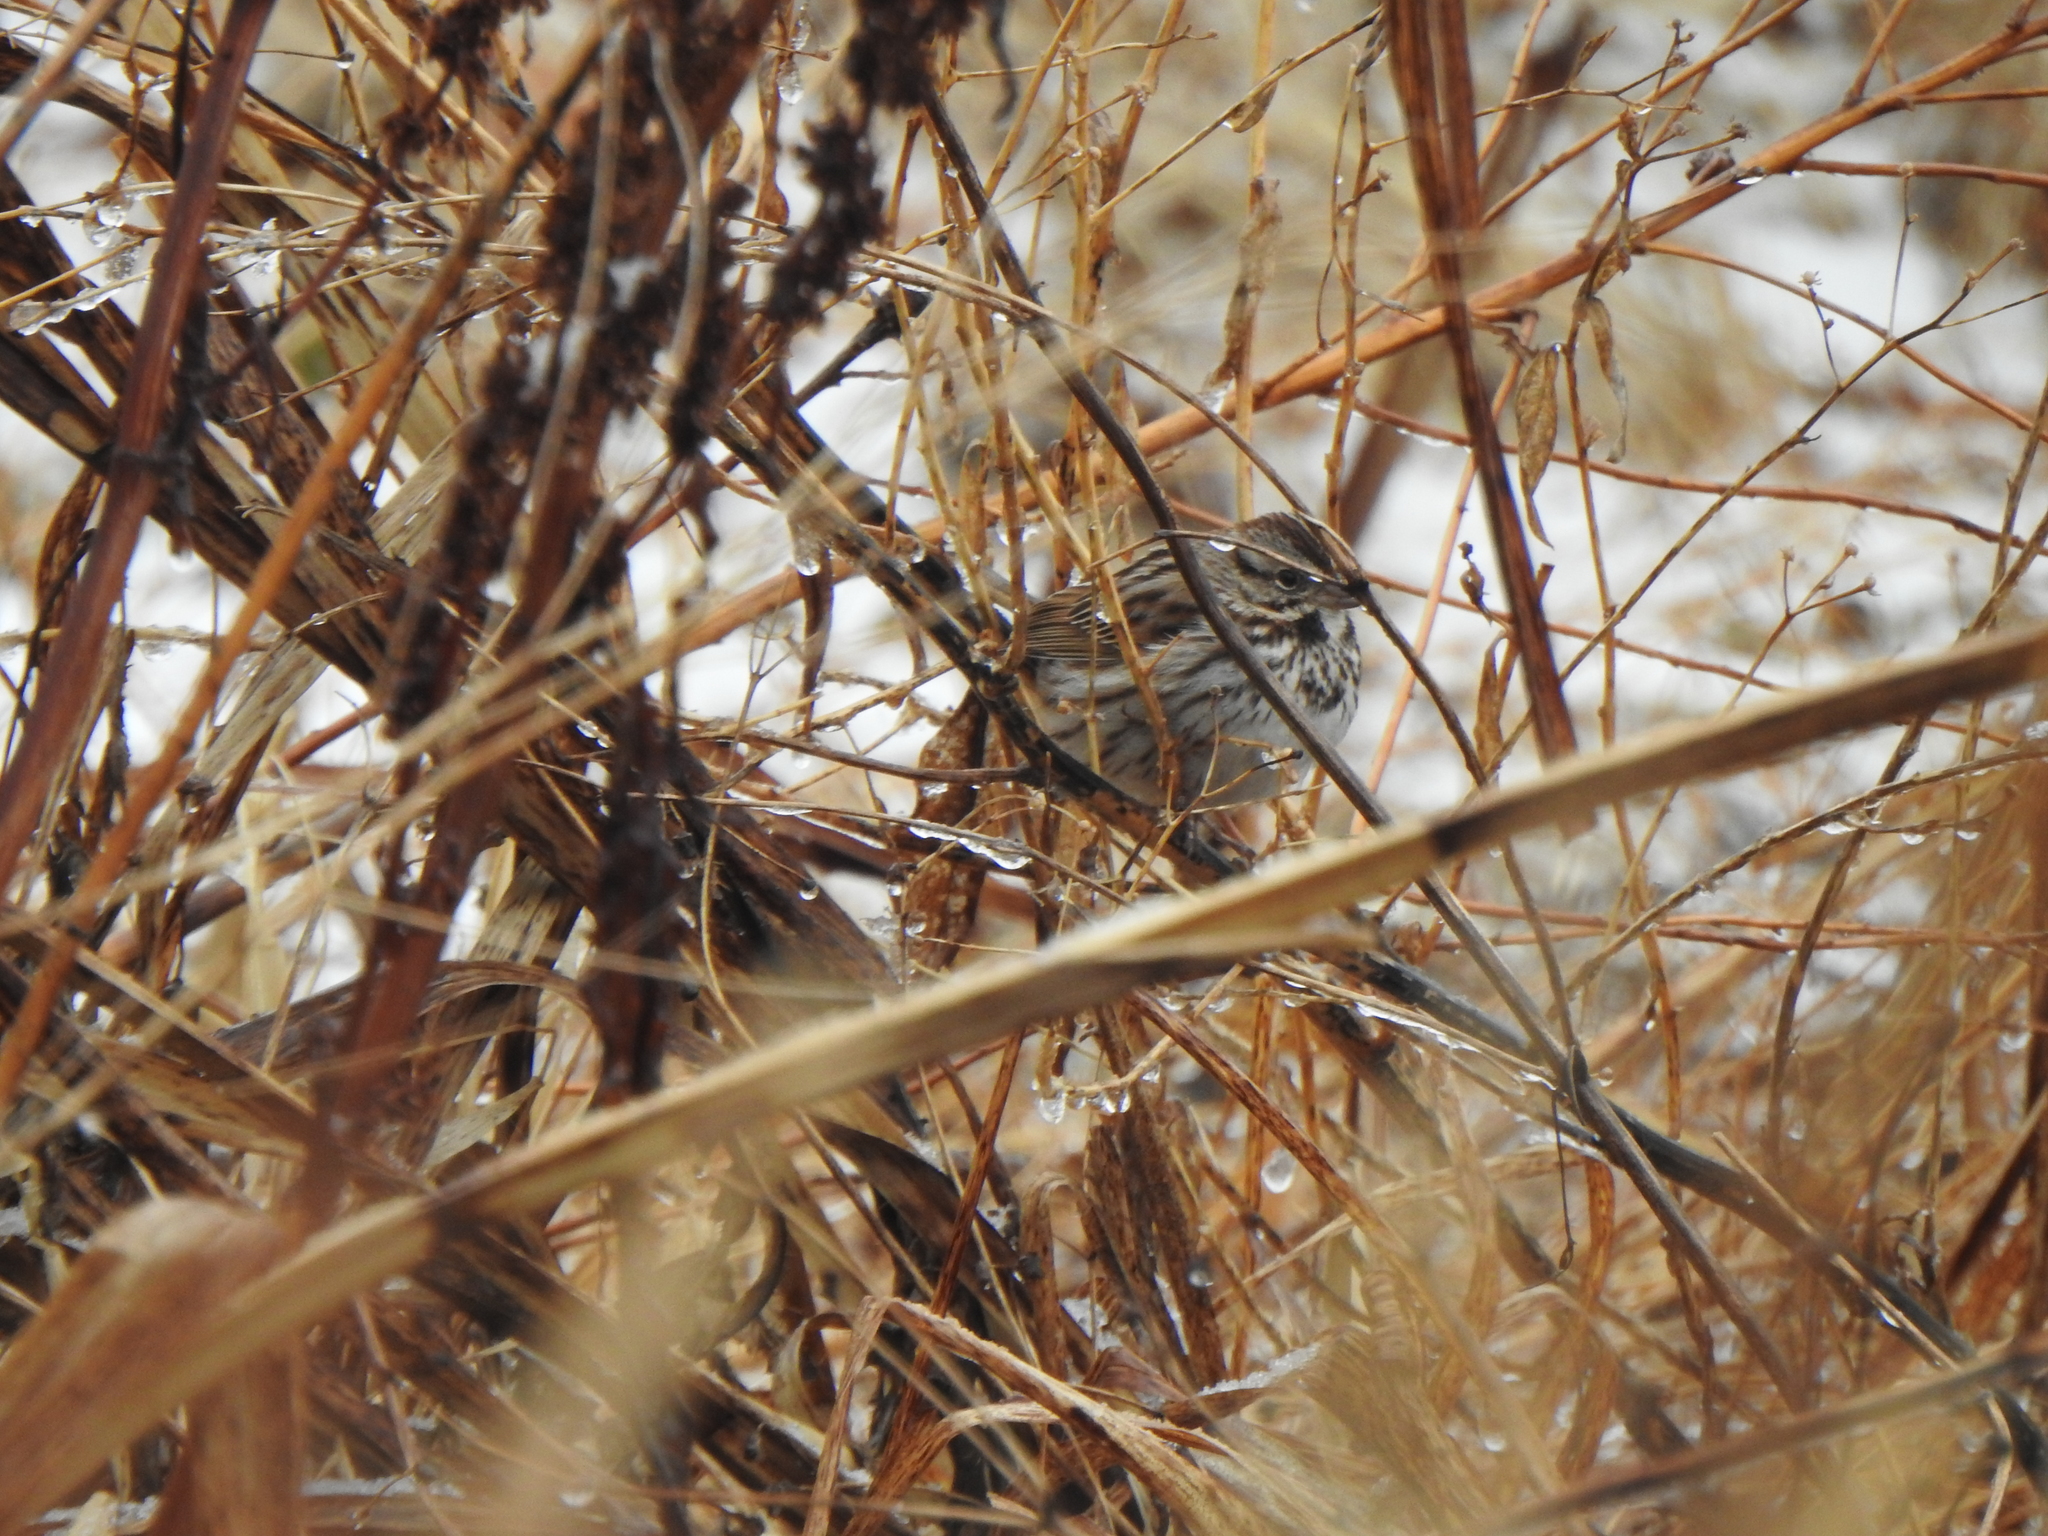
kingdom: Animalia
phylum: Chordata
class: Aves
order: Passeriformes
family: Passerellidae
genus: Melospiza
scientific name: Melospiza melodia
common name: Song sparrow
